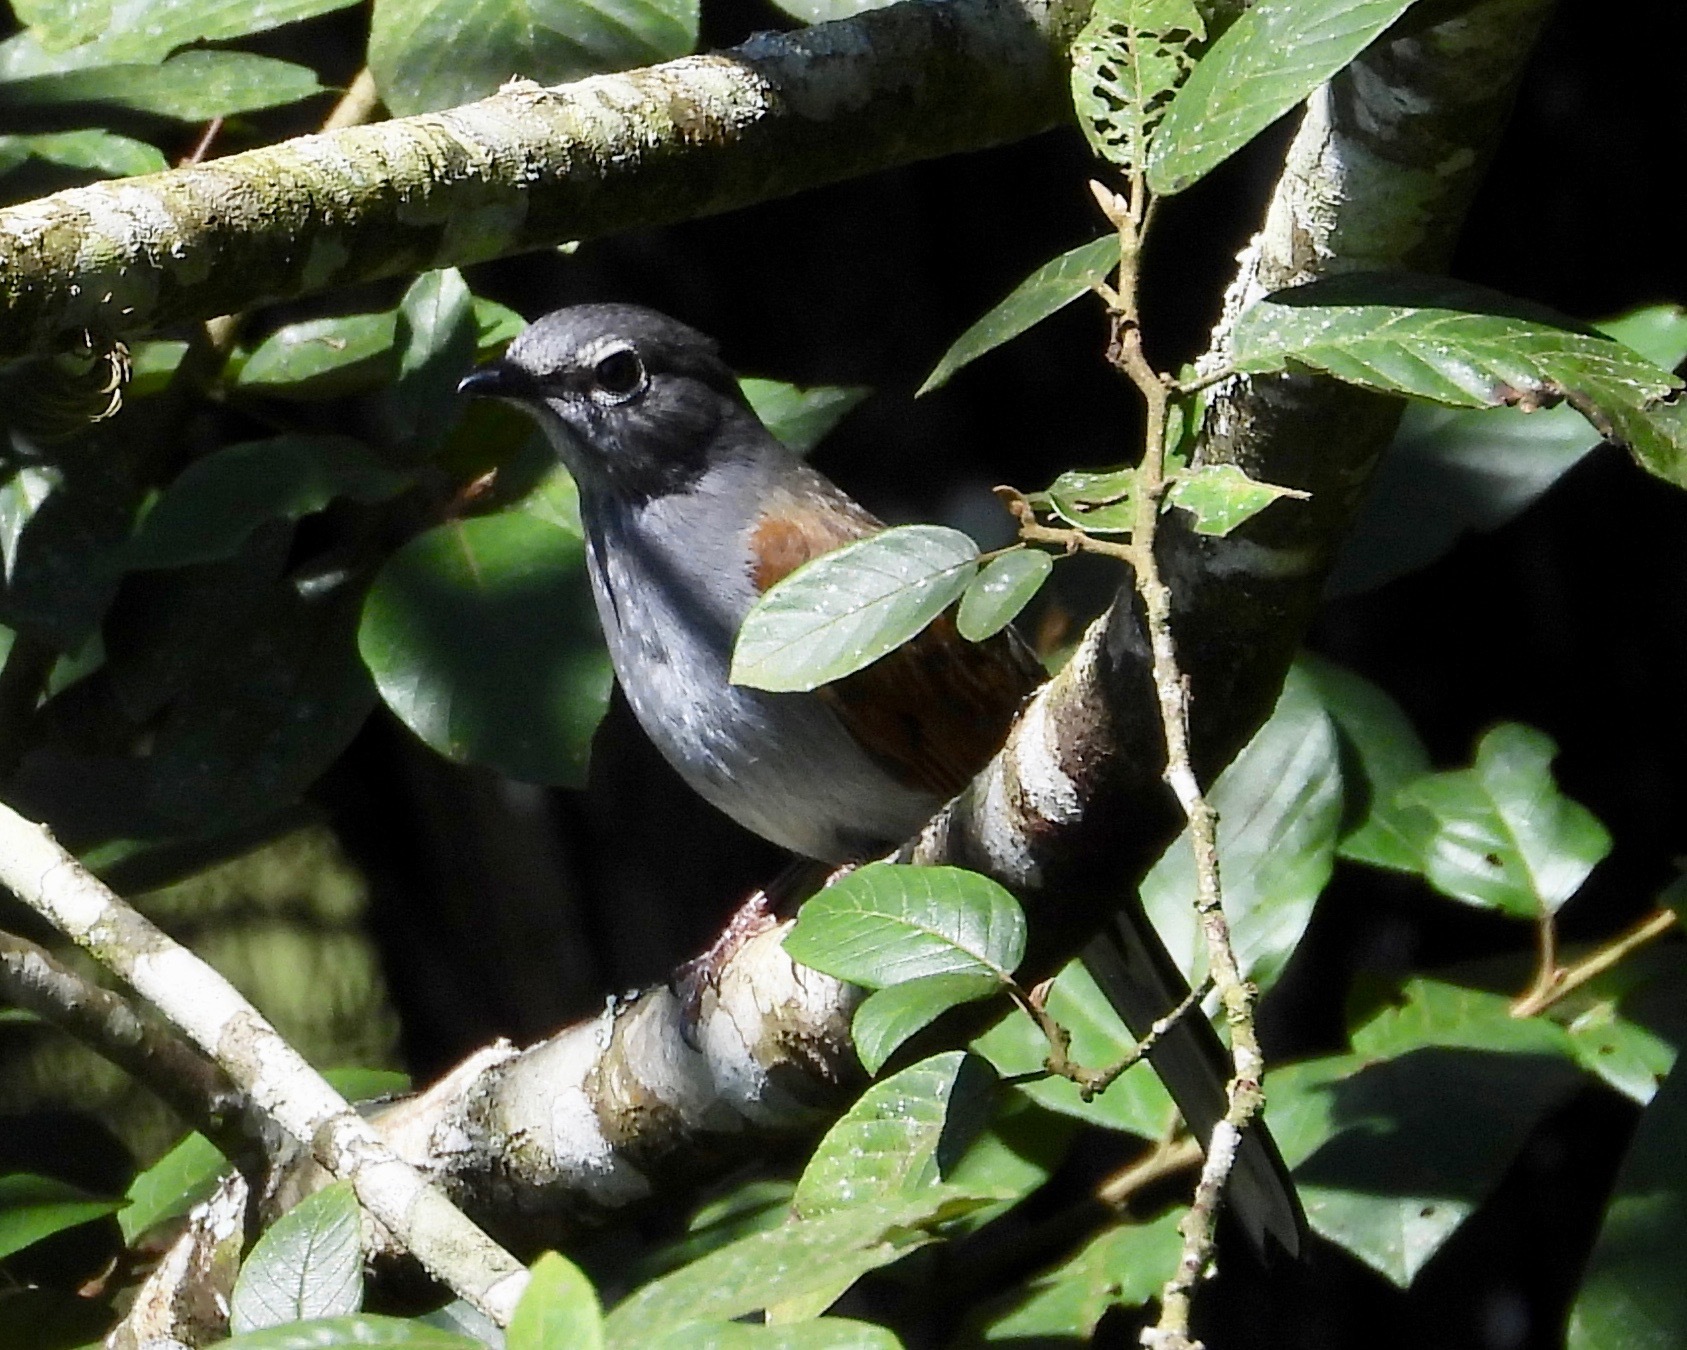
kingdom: Animalia
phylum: Chordata
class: Aves
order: Passeriformes
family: Turdidae
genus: Myadestes
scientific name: Myadestes occidentalis
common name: Brown-backed solitaire
